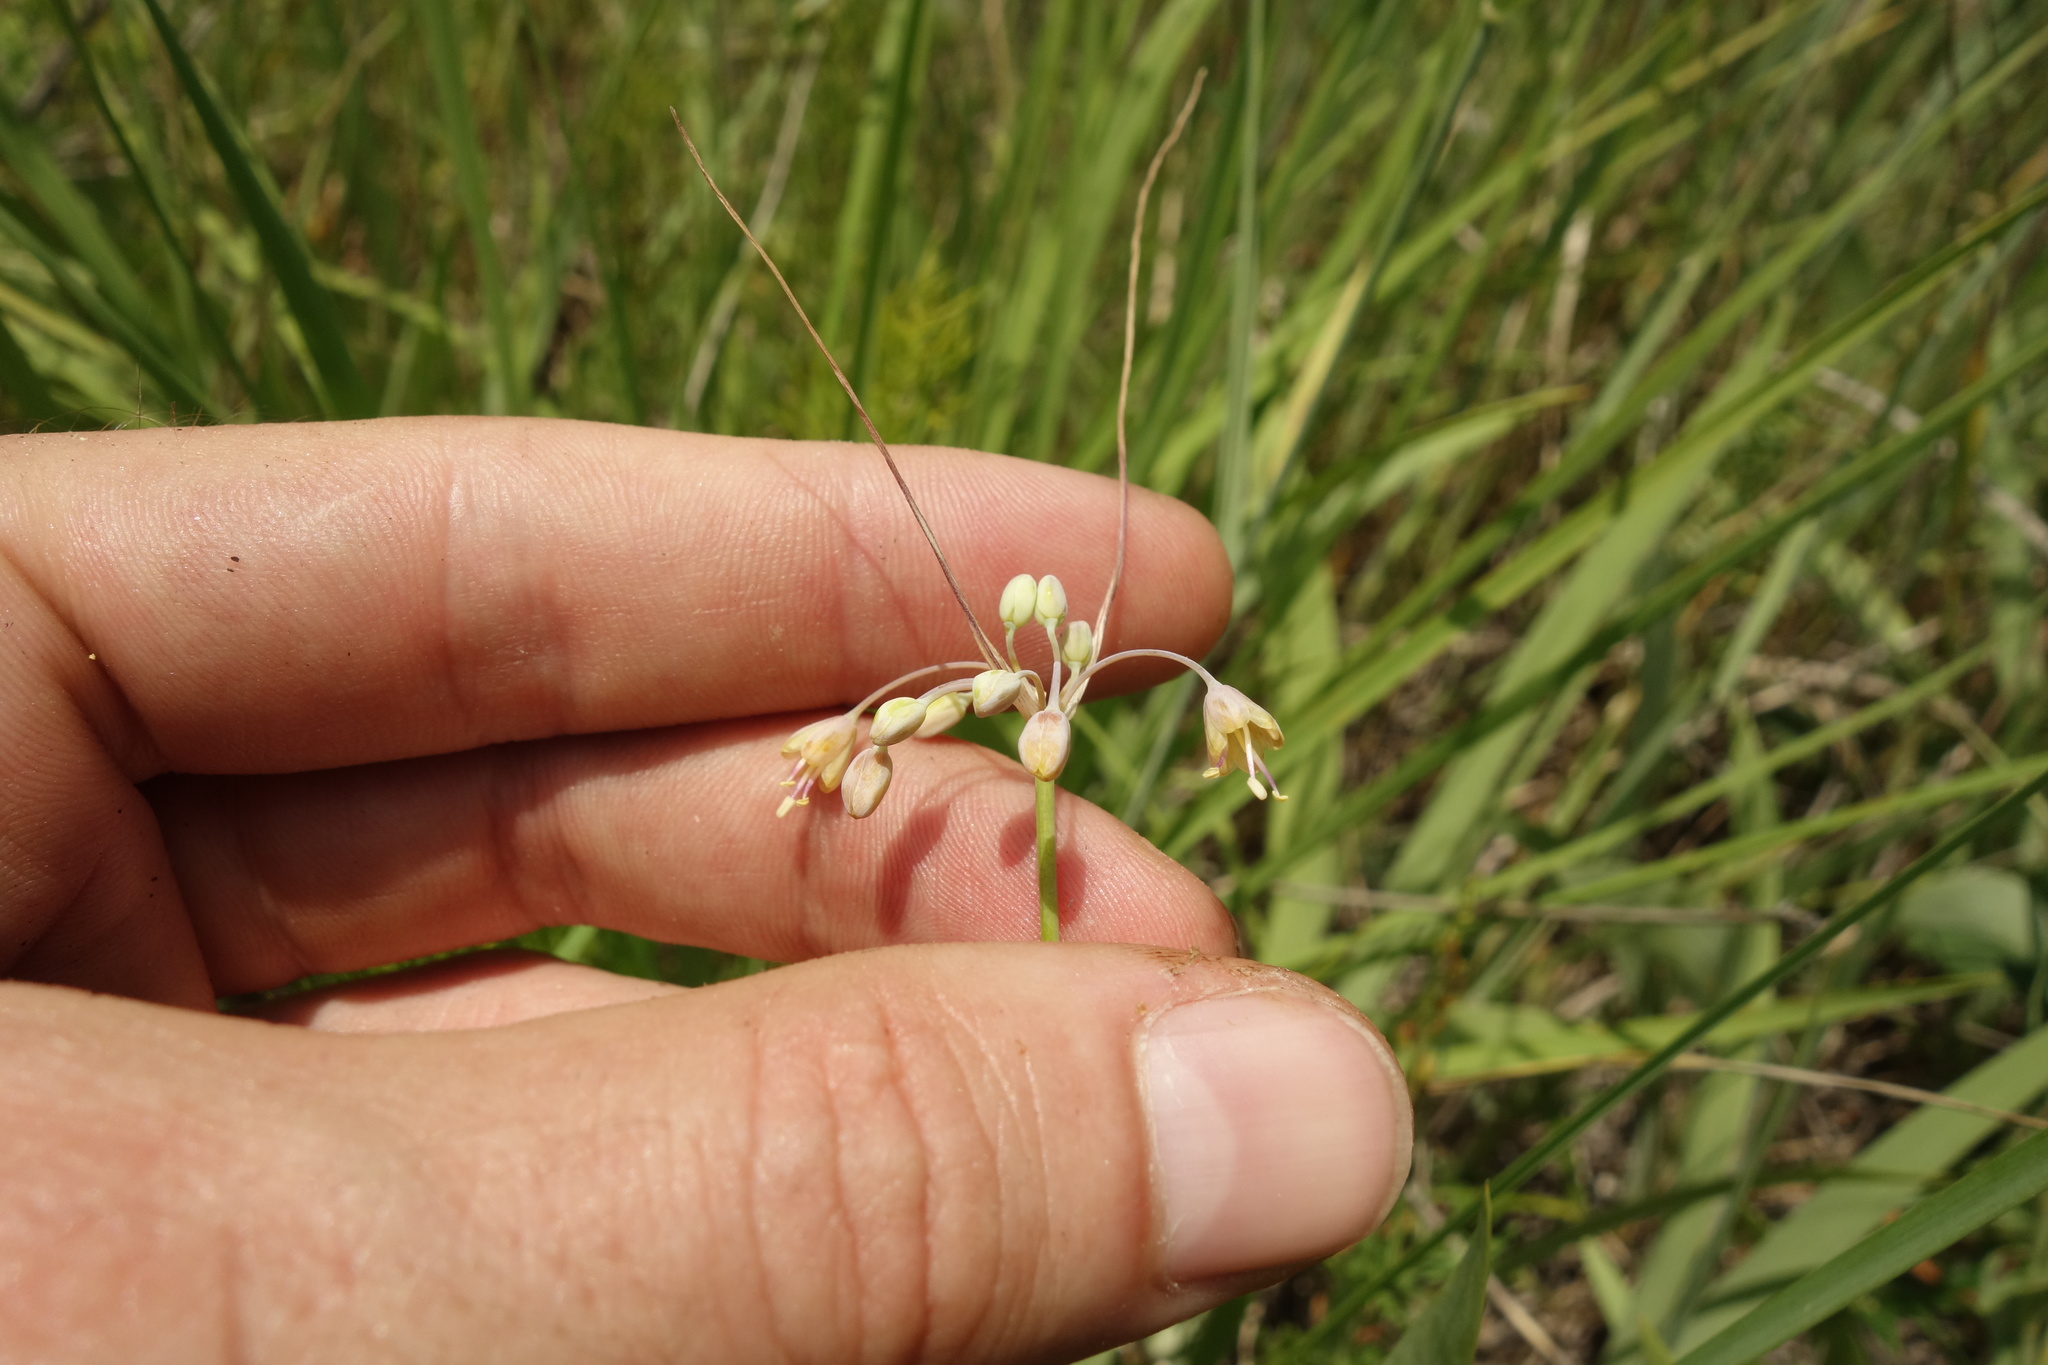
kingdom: Plantae
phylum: Tracheophyta
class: Liliopsida
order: Asparagales
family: Amaryllidaceae
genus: Allium
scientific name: Allium flavum
